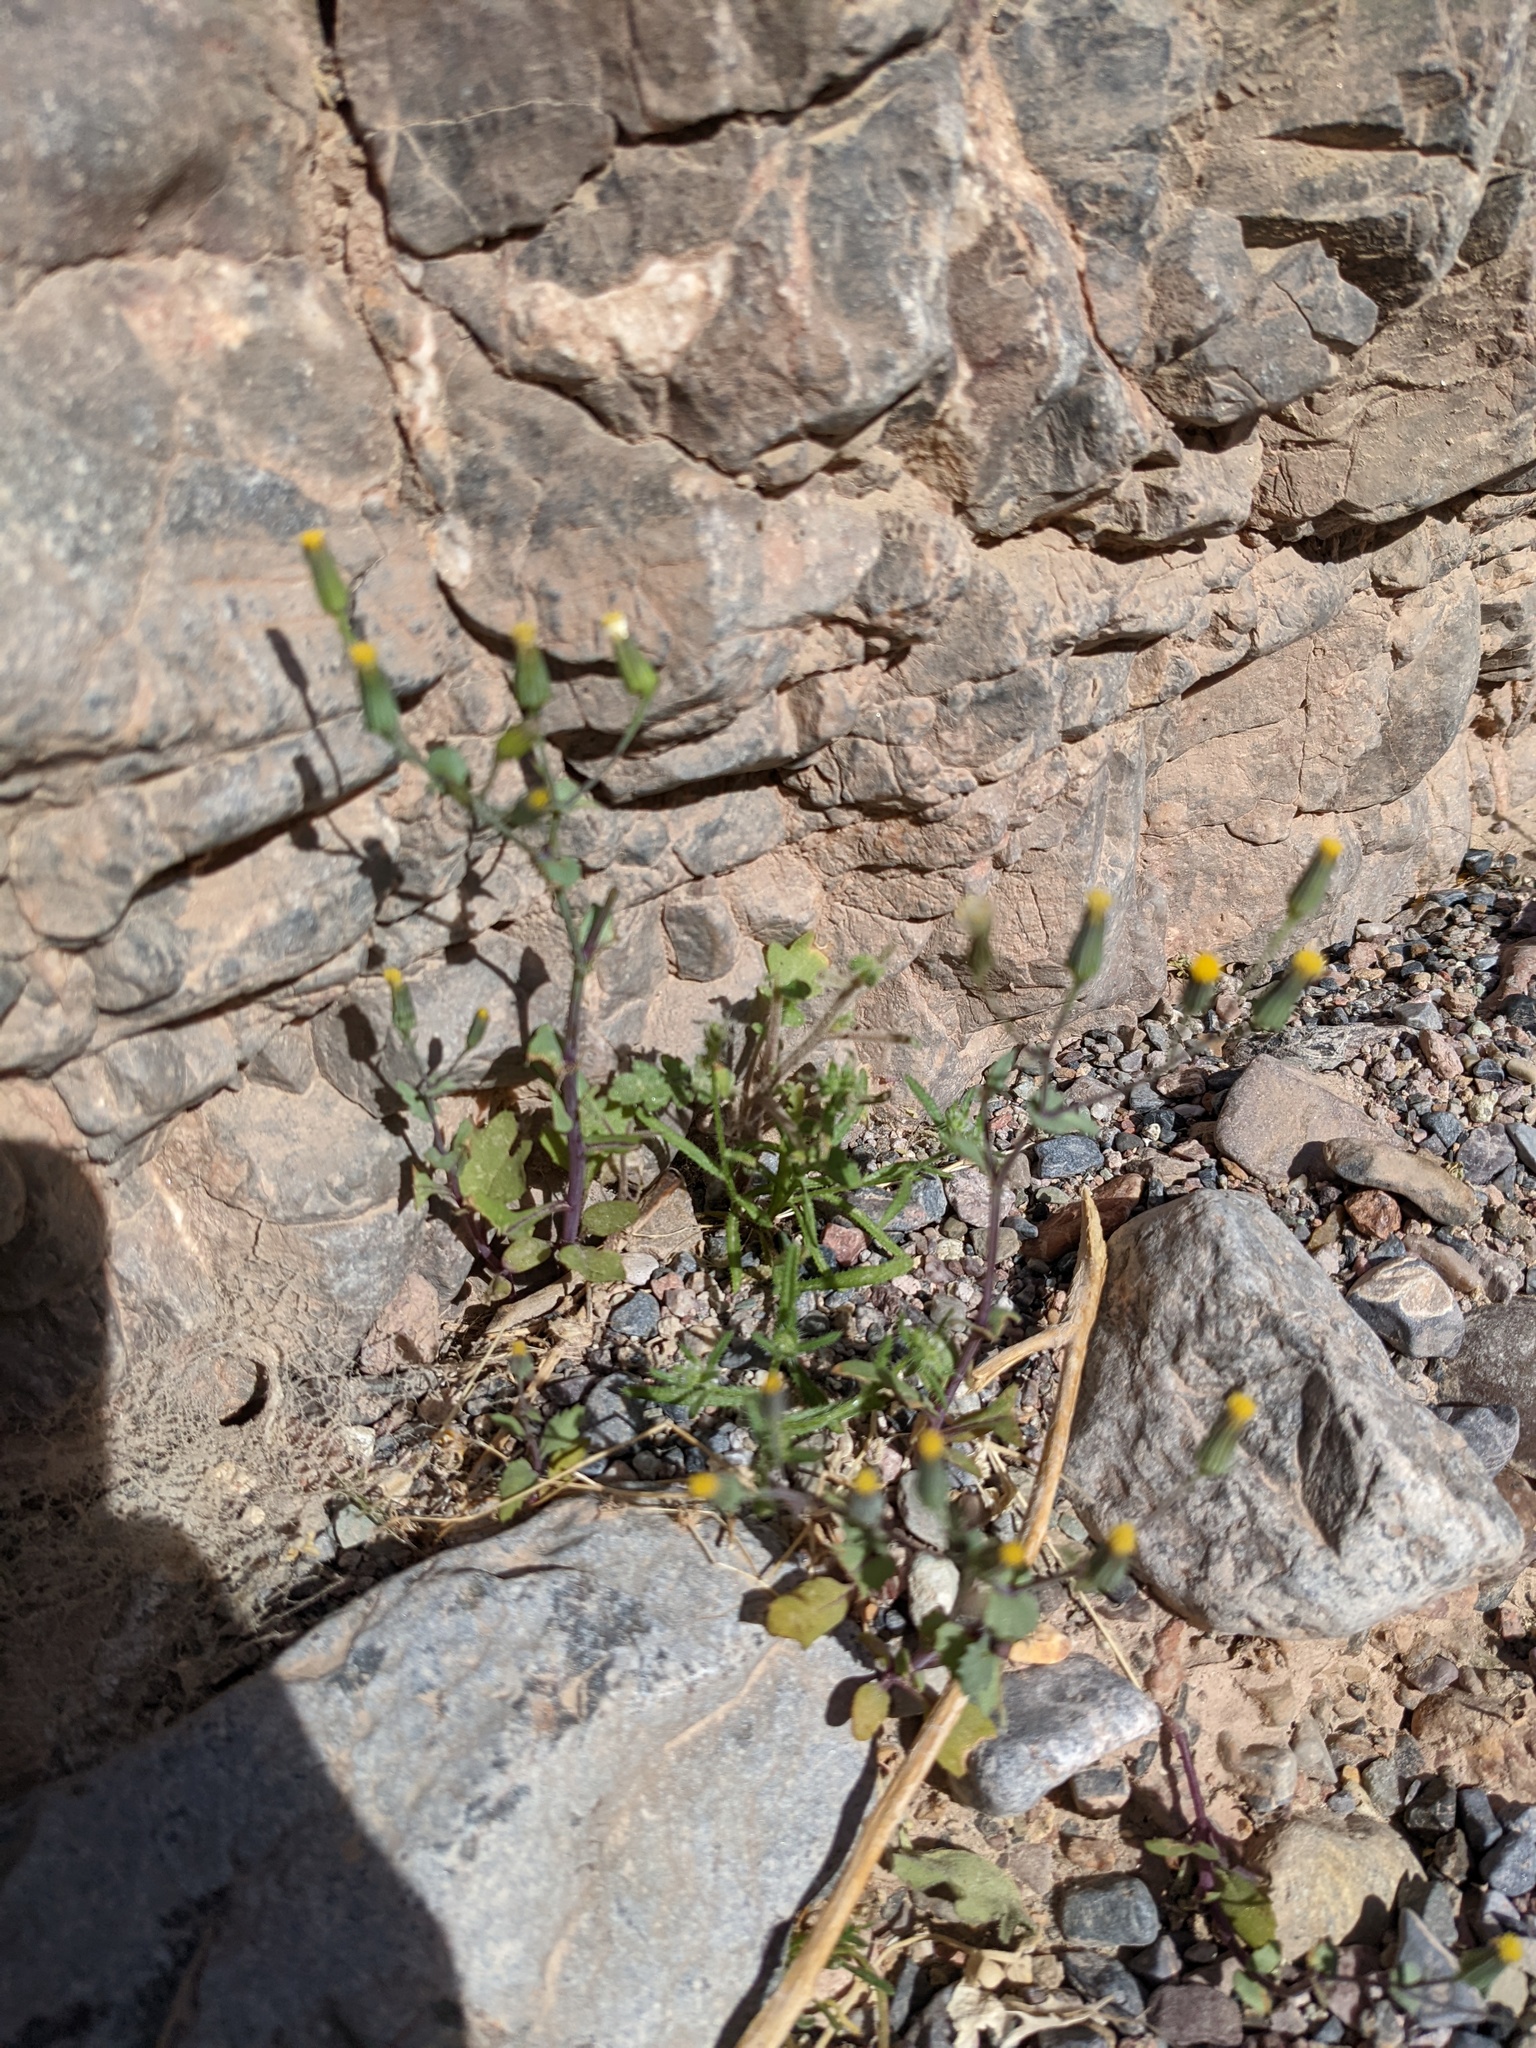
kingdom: Plantae
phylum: Tracheophyta
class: Magnoliopsida
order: Asterales
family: Asteraceae
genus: Senecio
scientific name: Senecio mohavensis
